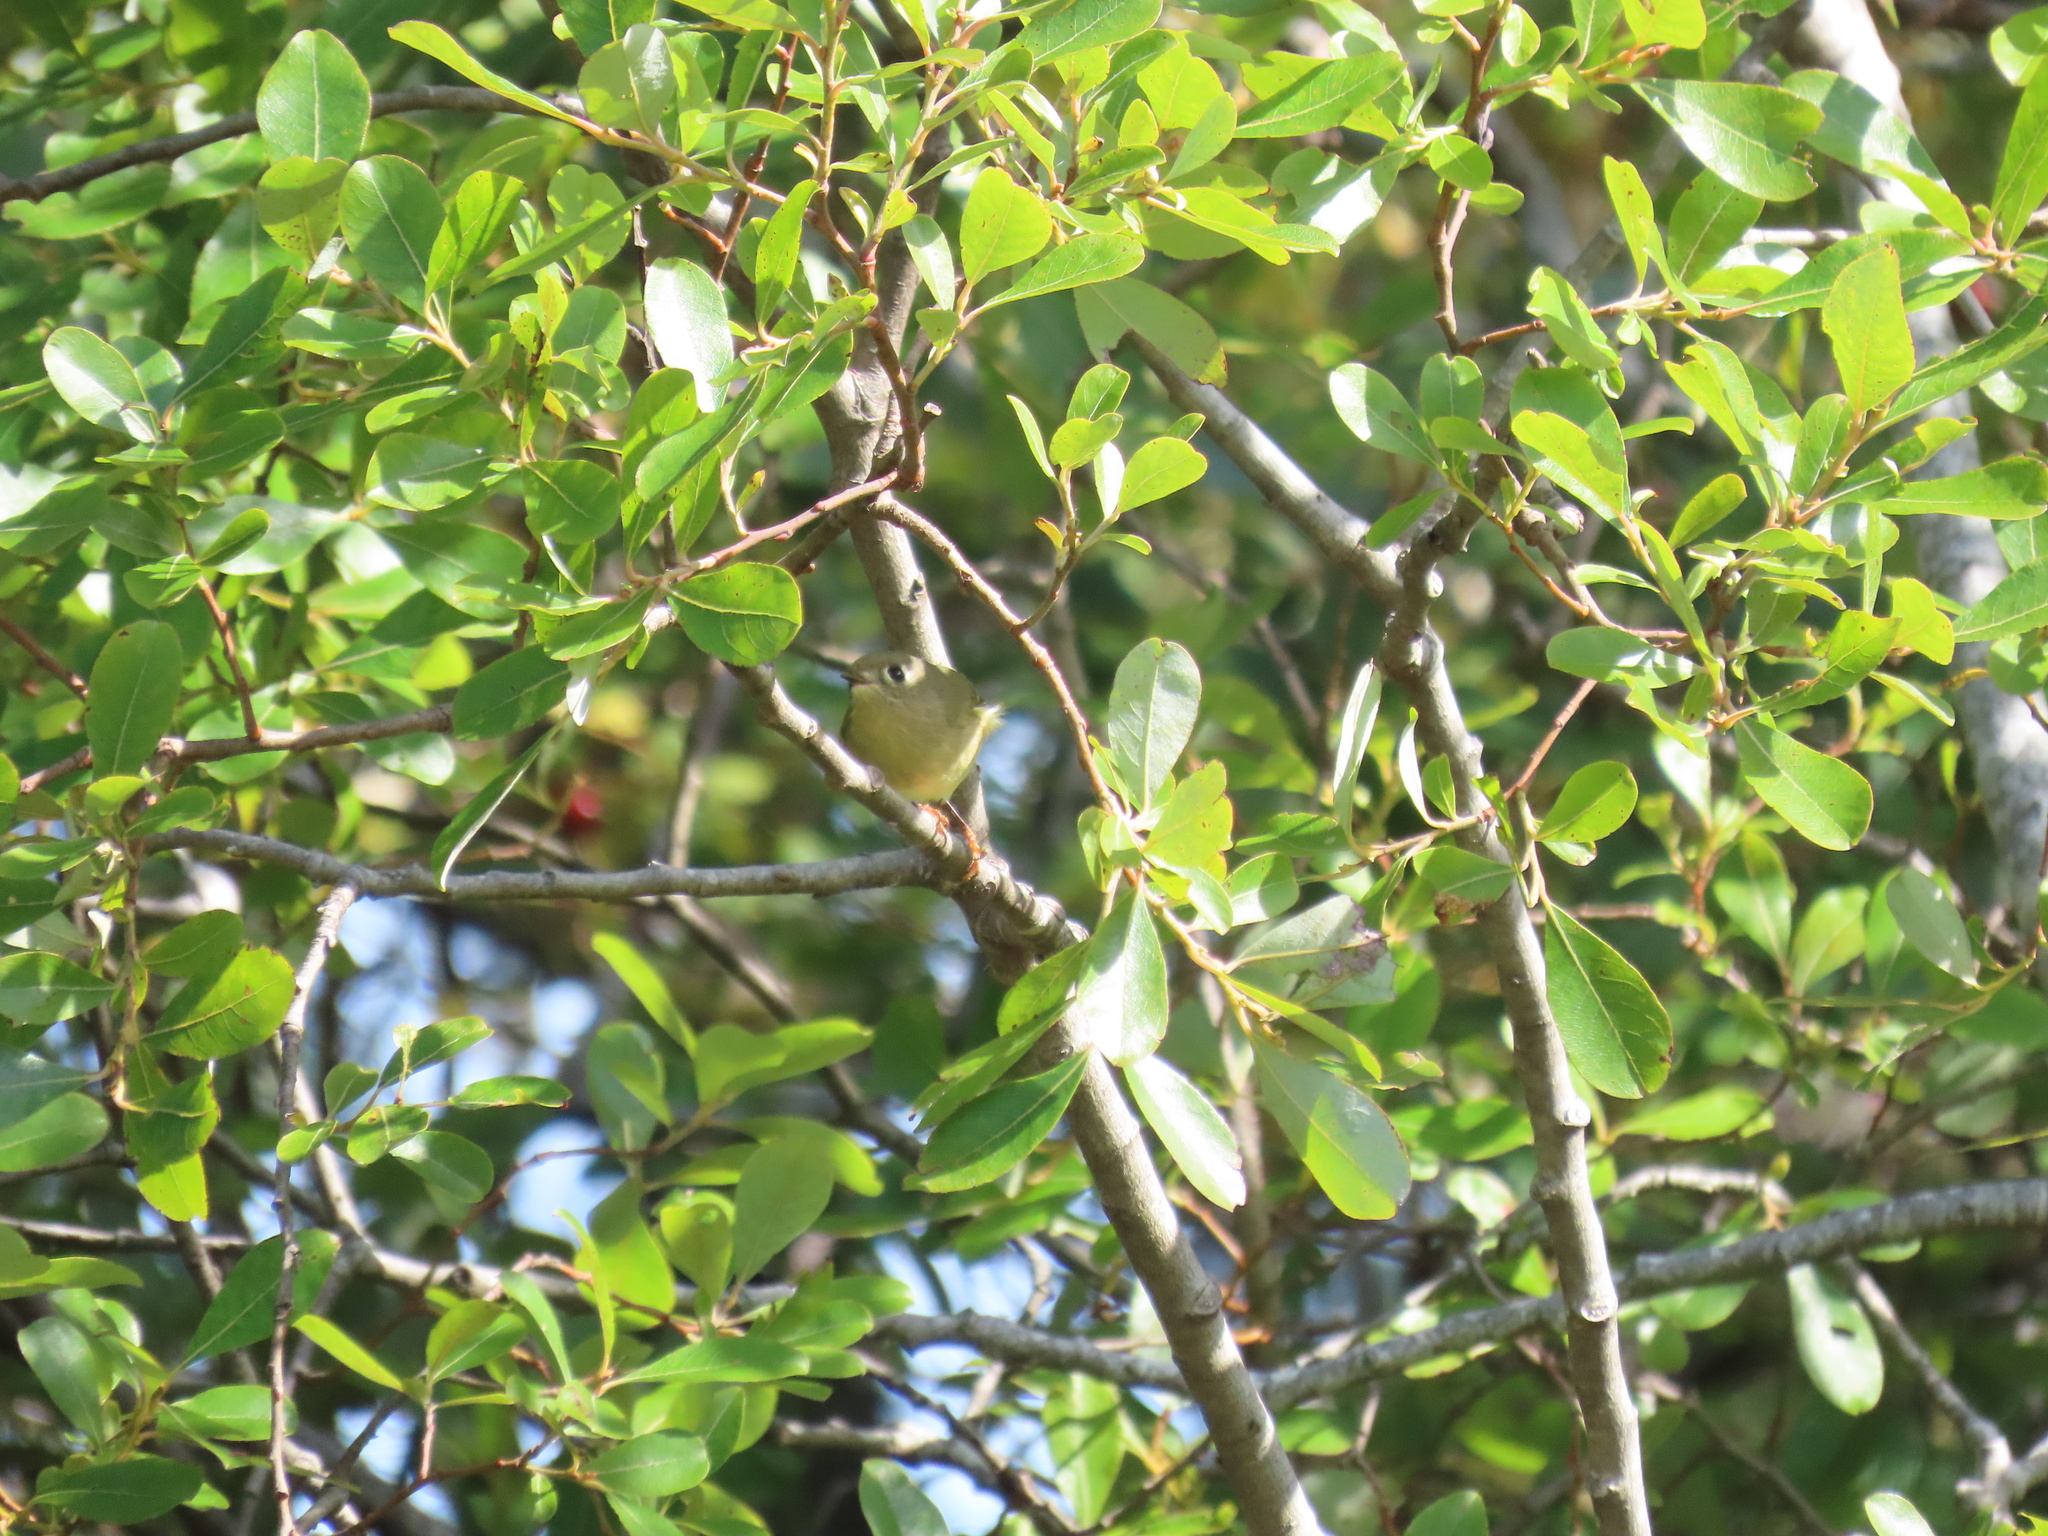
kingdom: Animalia
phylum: Chordata
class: Aves
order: Passeriformes
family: Regulidae
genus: Regulus
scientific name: Regulus calendula
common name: Ruby-crowned kinglet
